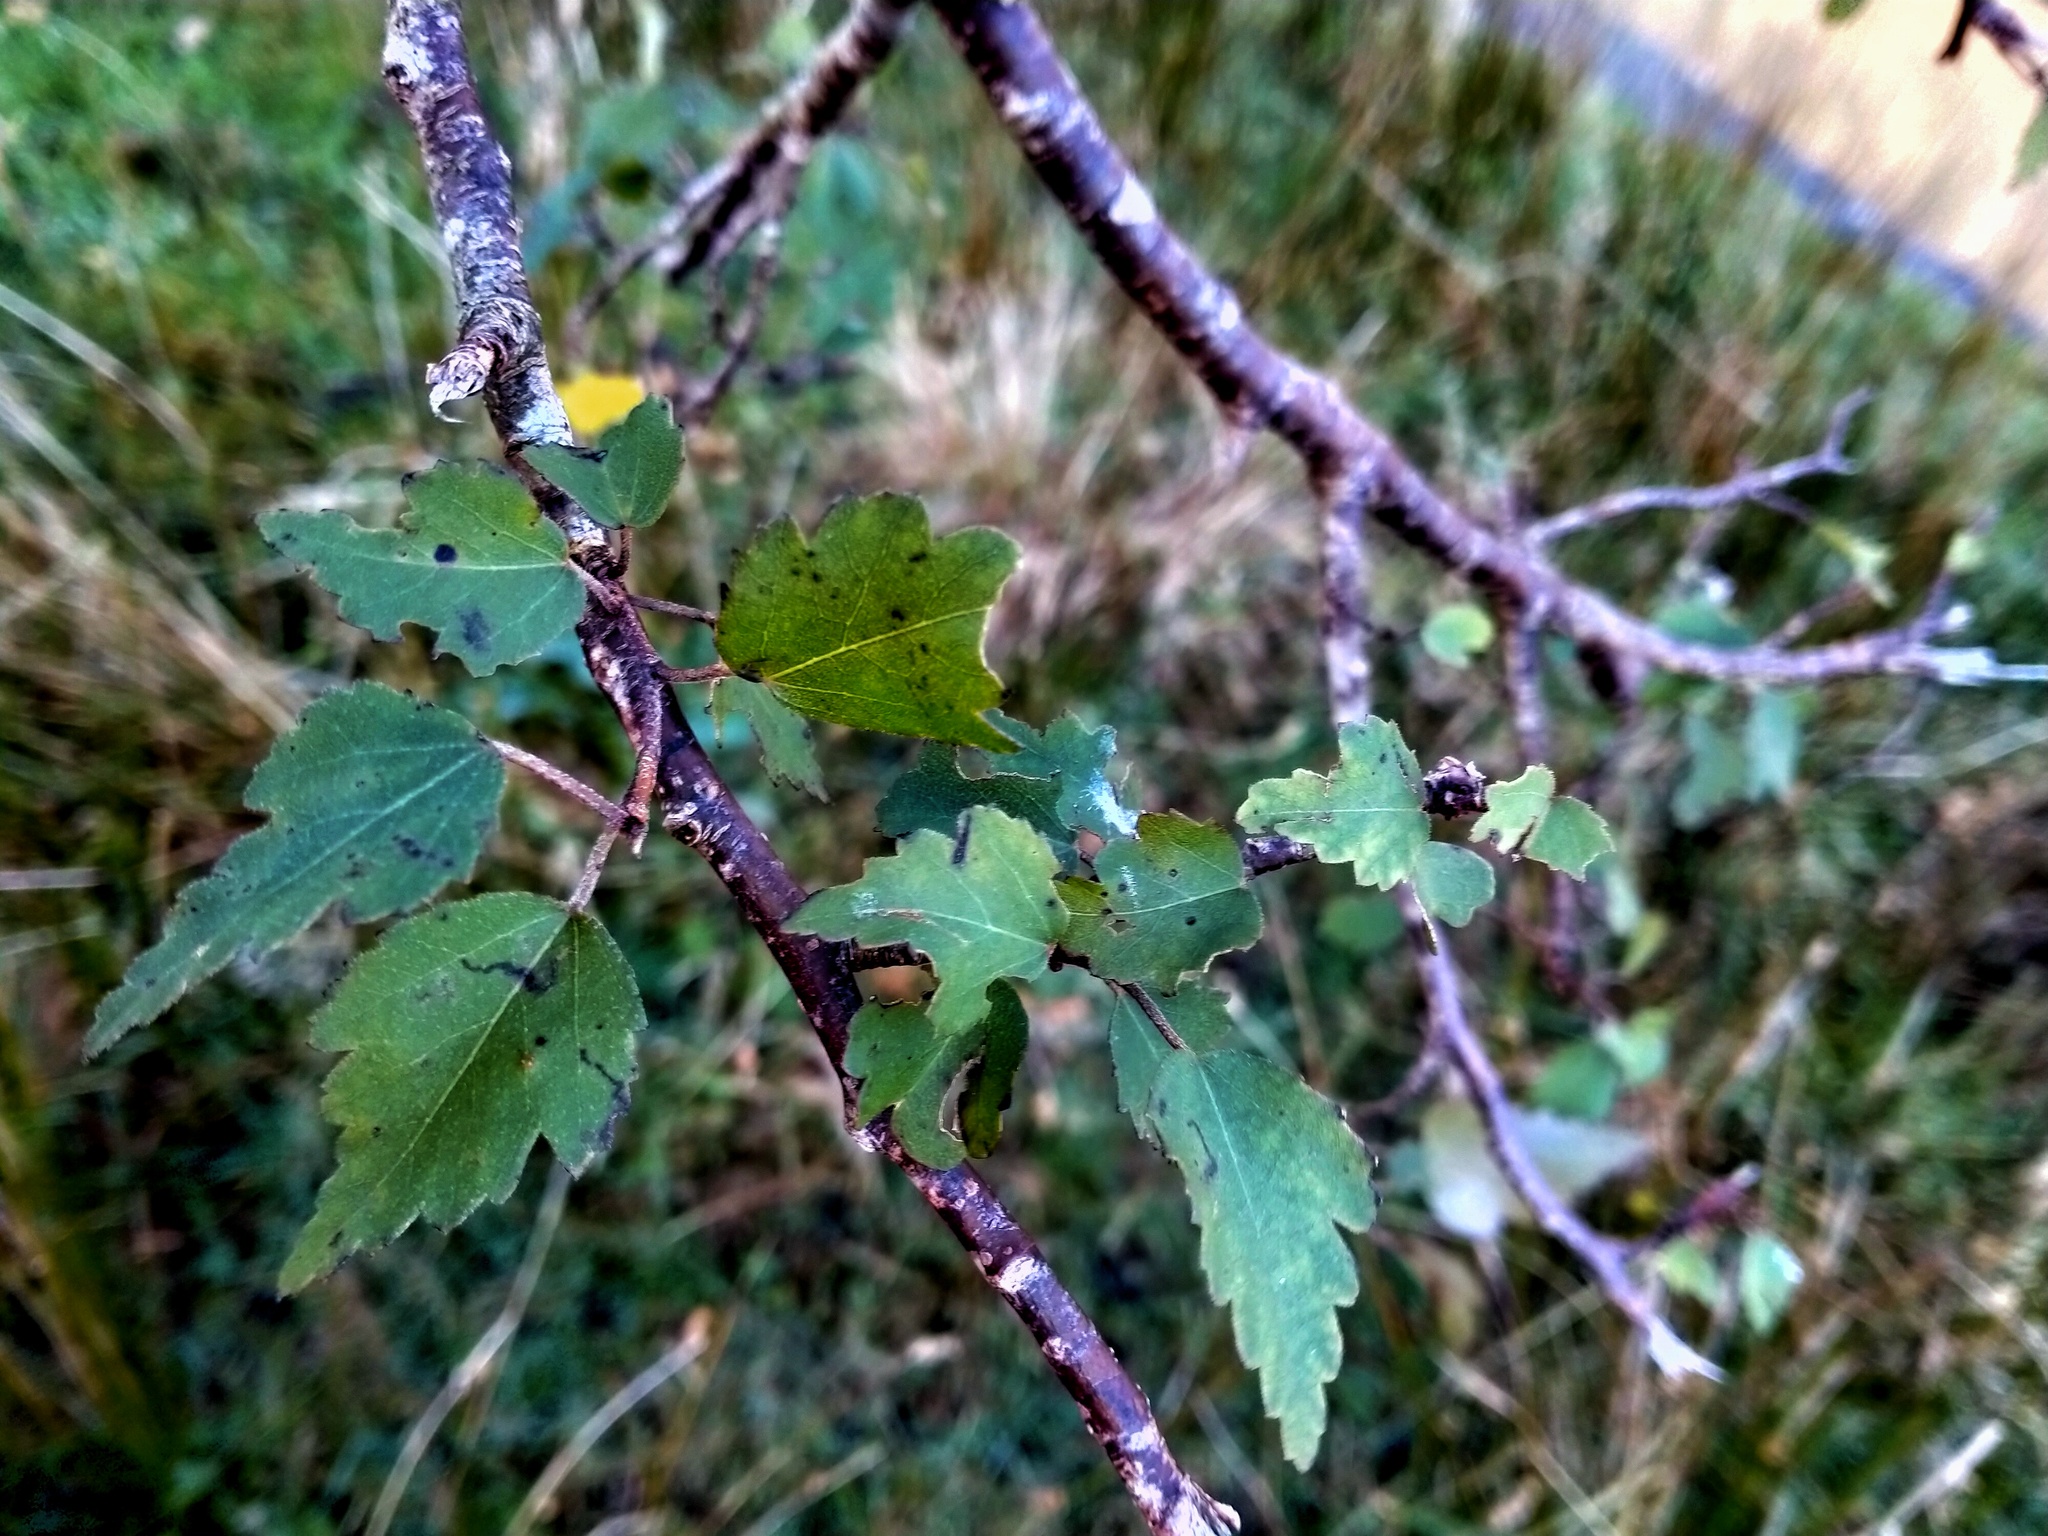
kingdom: Plantae
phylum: Tracheophyta
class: Magnoliopsida
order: Malvales
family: Malvaceae
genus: Plagianthus
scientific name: Plagianthus regius
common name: Manatu
